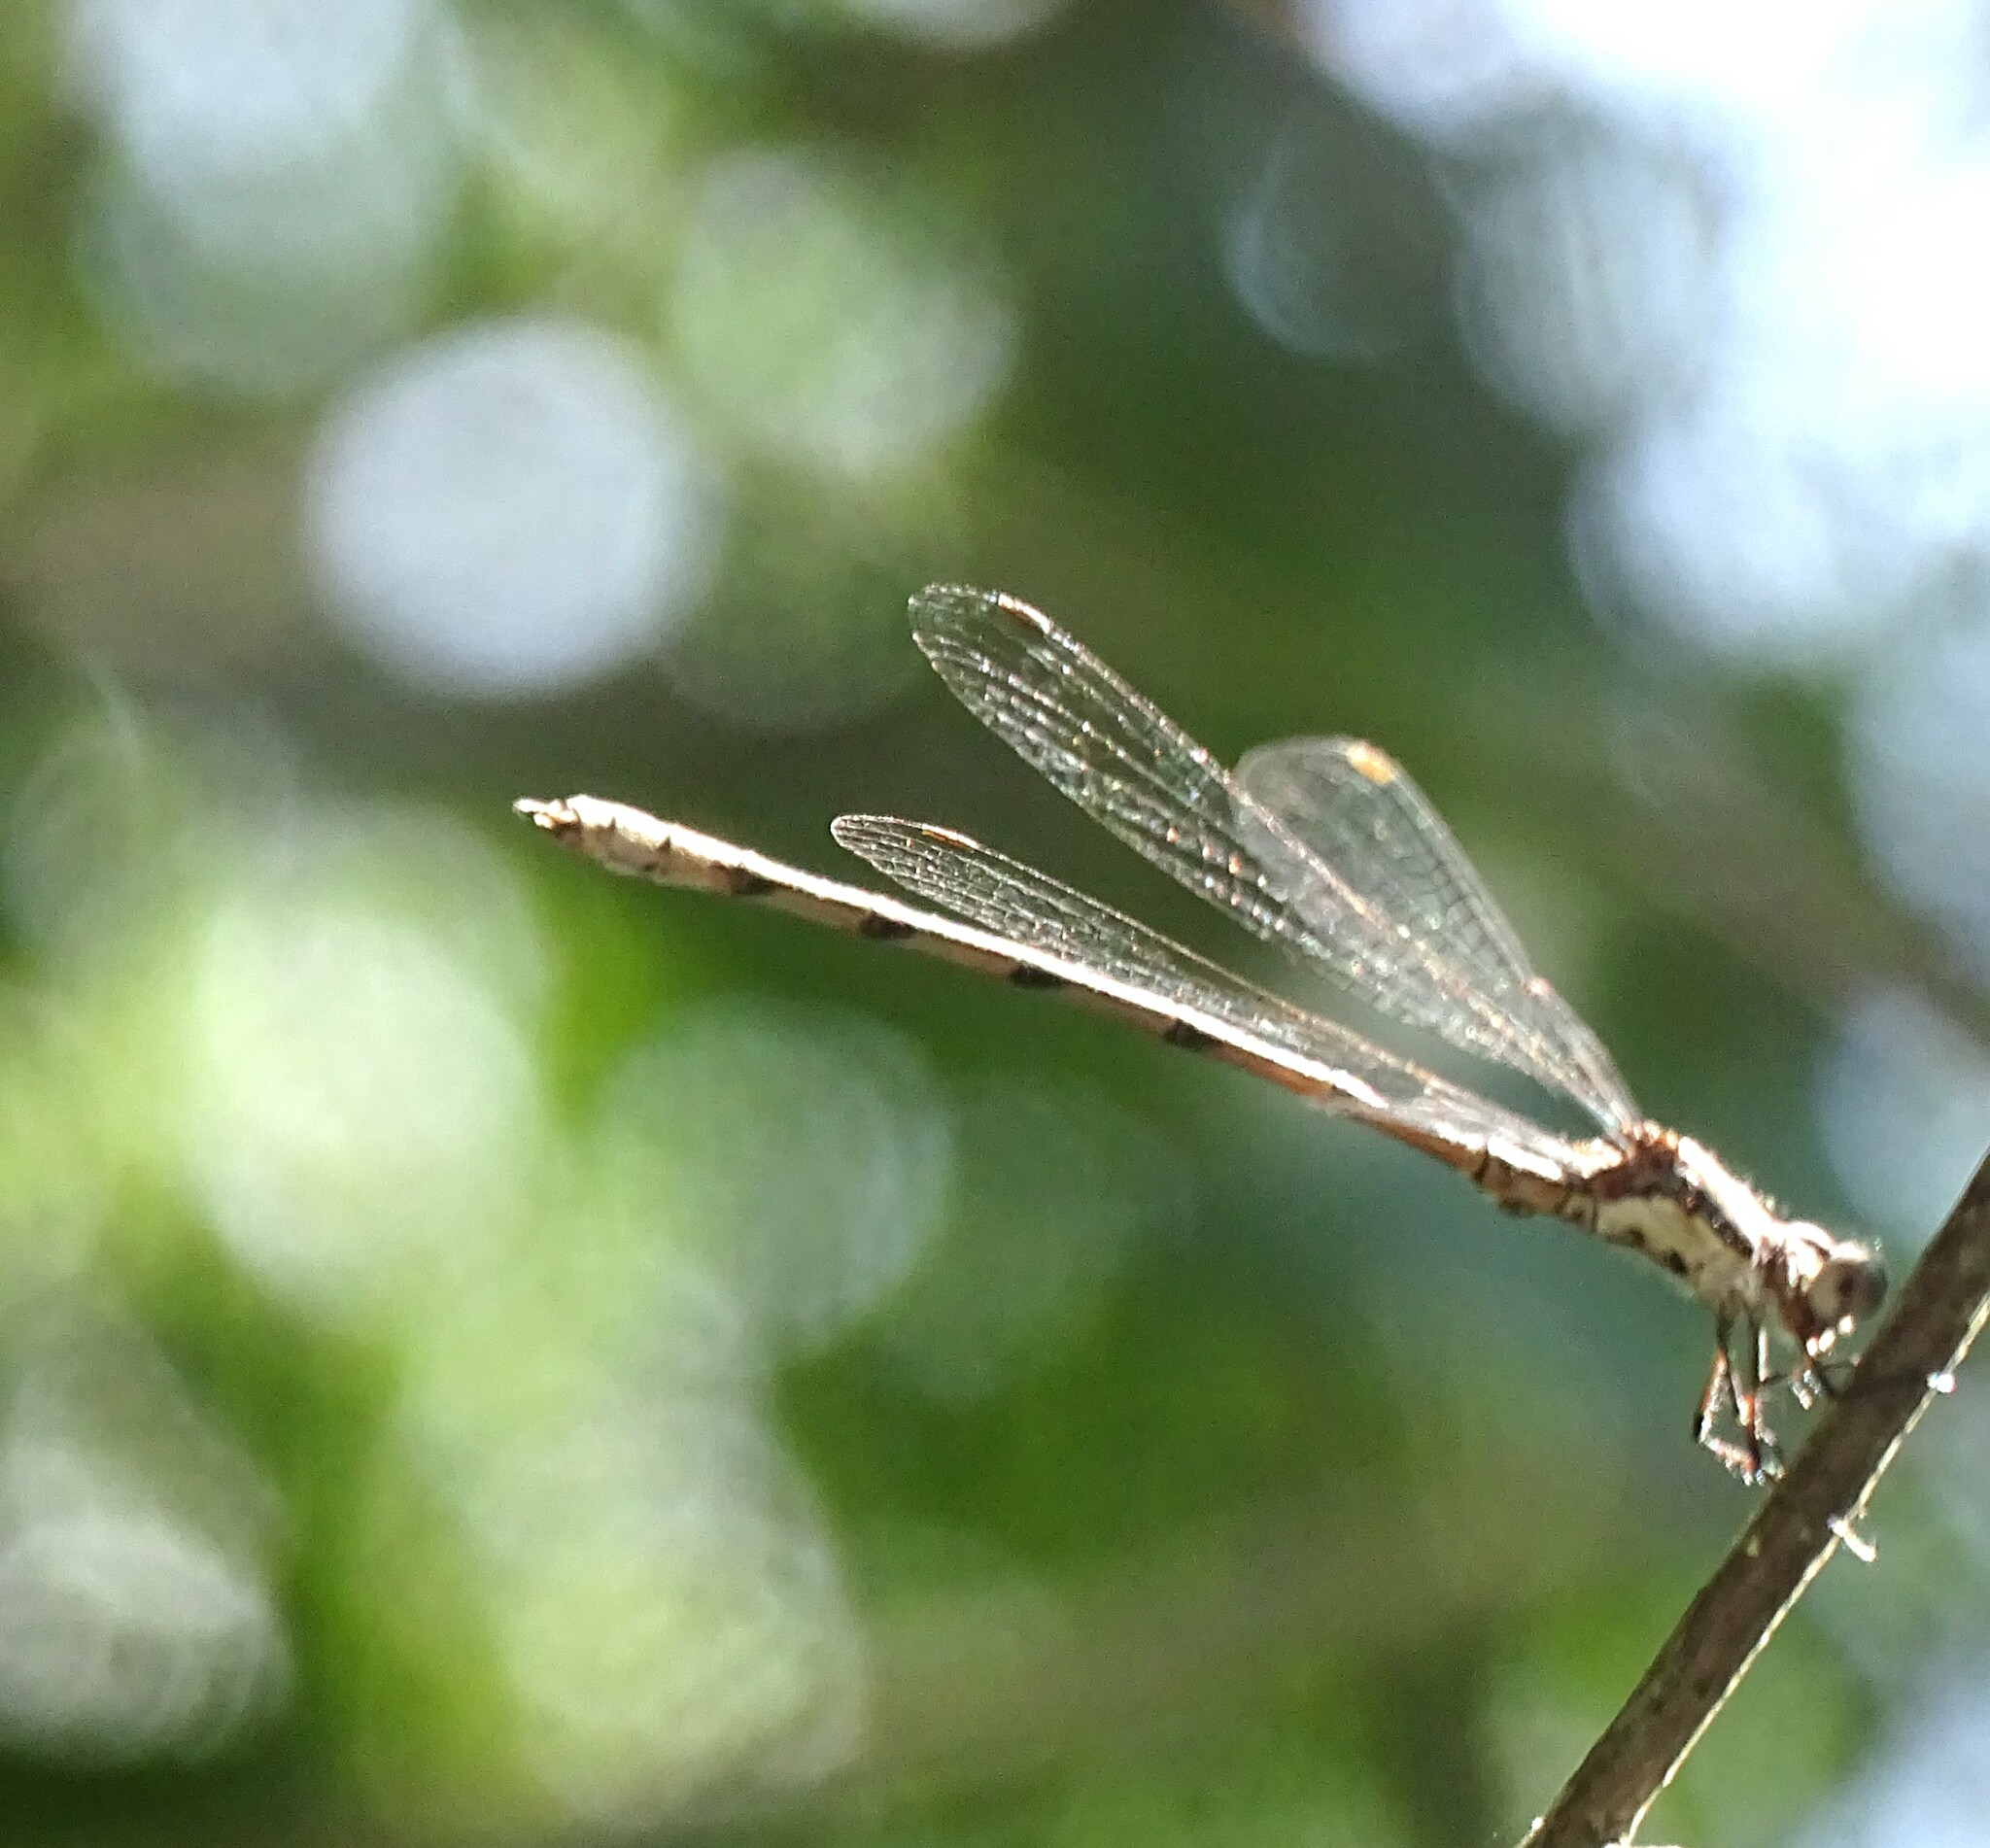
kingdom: Animalia
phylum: Arthropoda
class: Insecta
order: Odonata
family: Lestidae
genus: Lestes
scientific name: Lestes congener
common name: Spotted spreadwing
